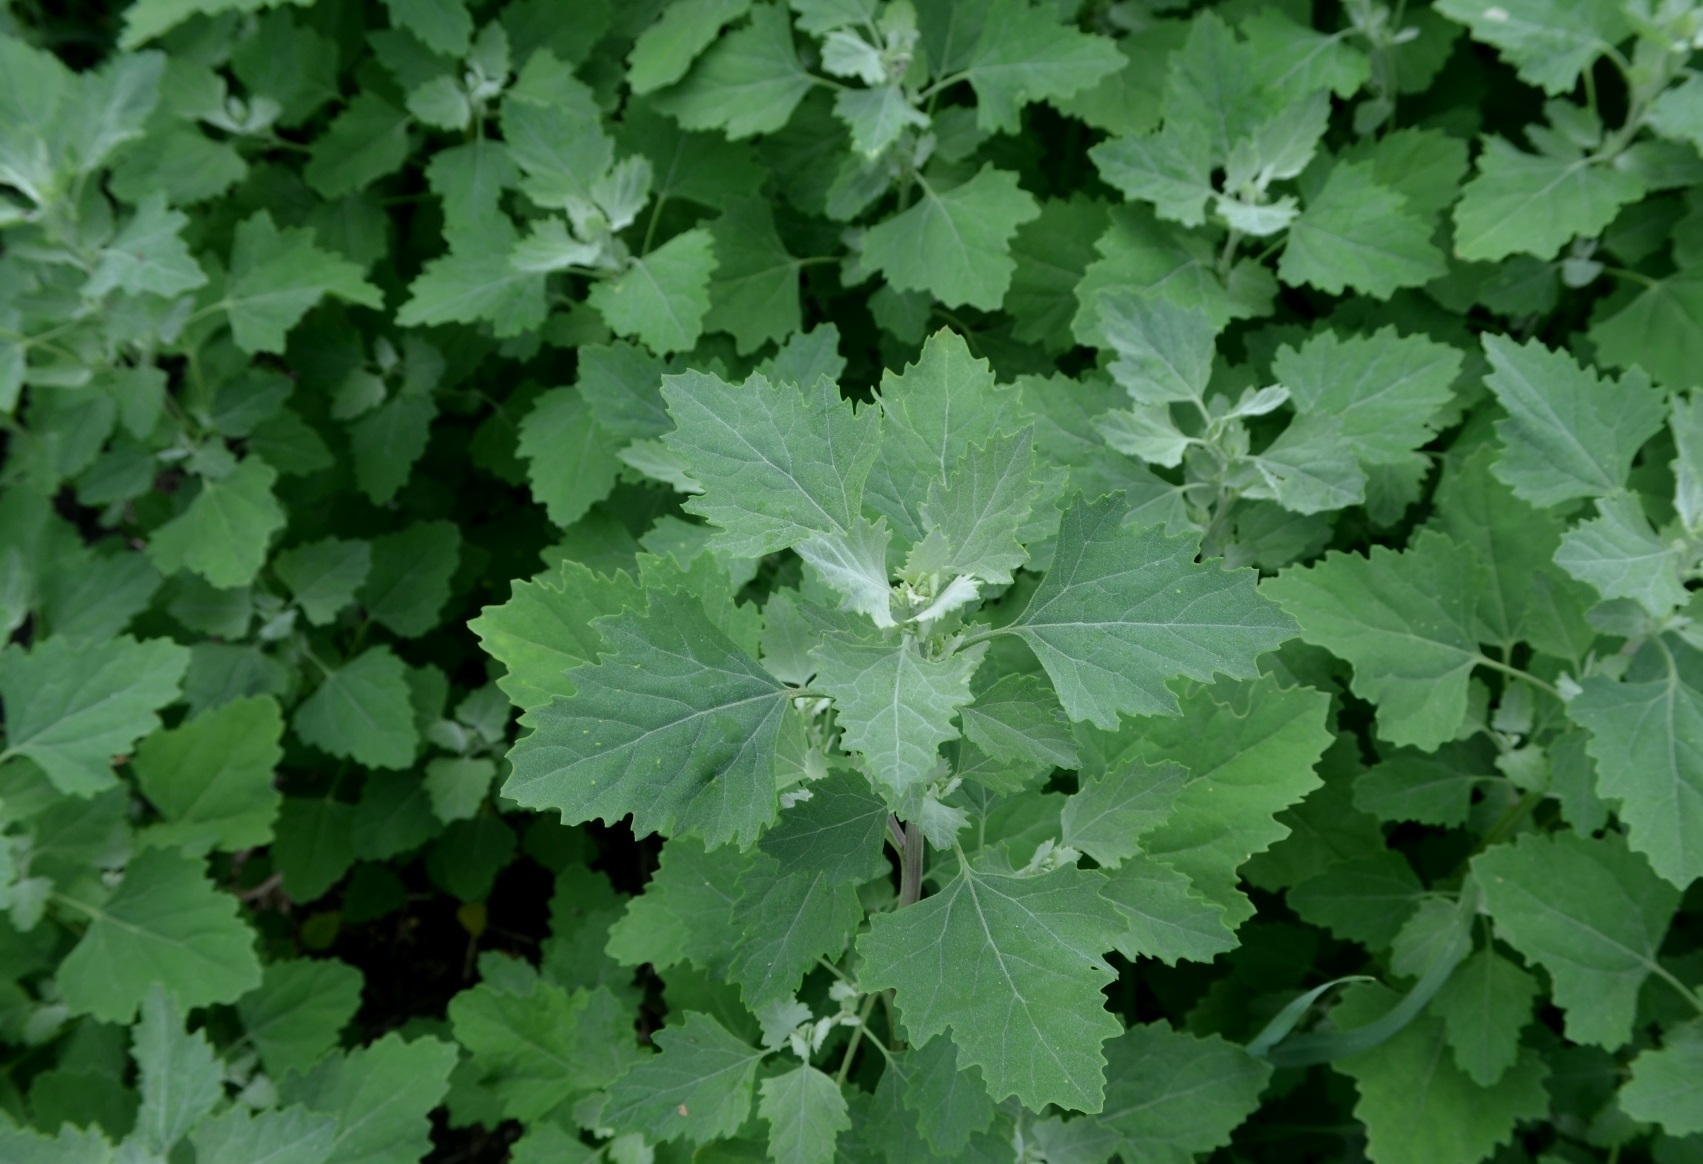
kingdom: Plantae
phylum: Tracheophyta
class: Magnoliopsida
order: Caryophyllales
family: Amaranthaceae
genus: Chenopodium
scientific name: Chenopodium album
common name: Fat-hen
